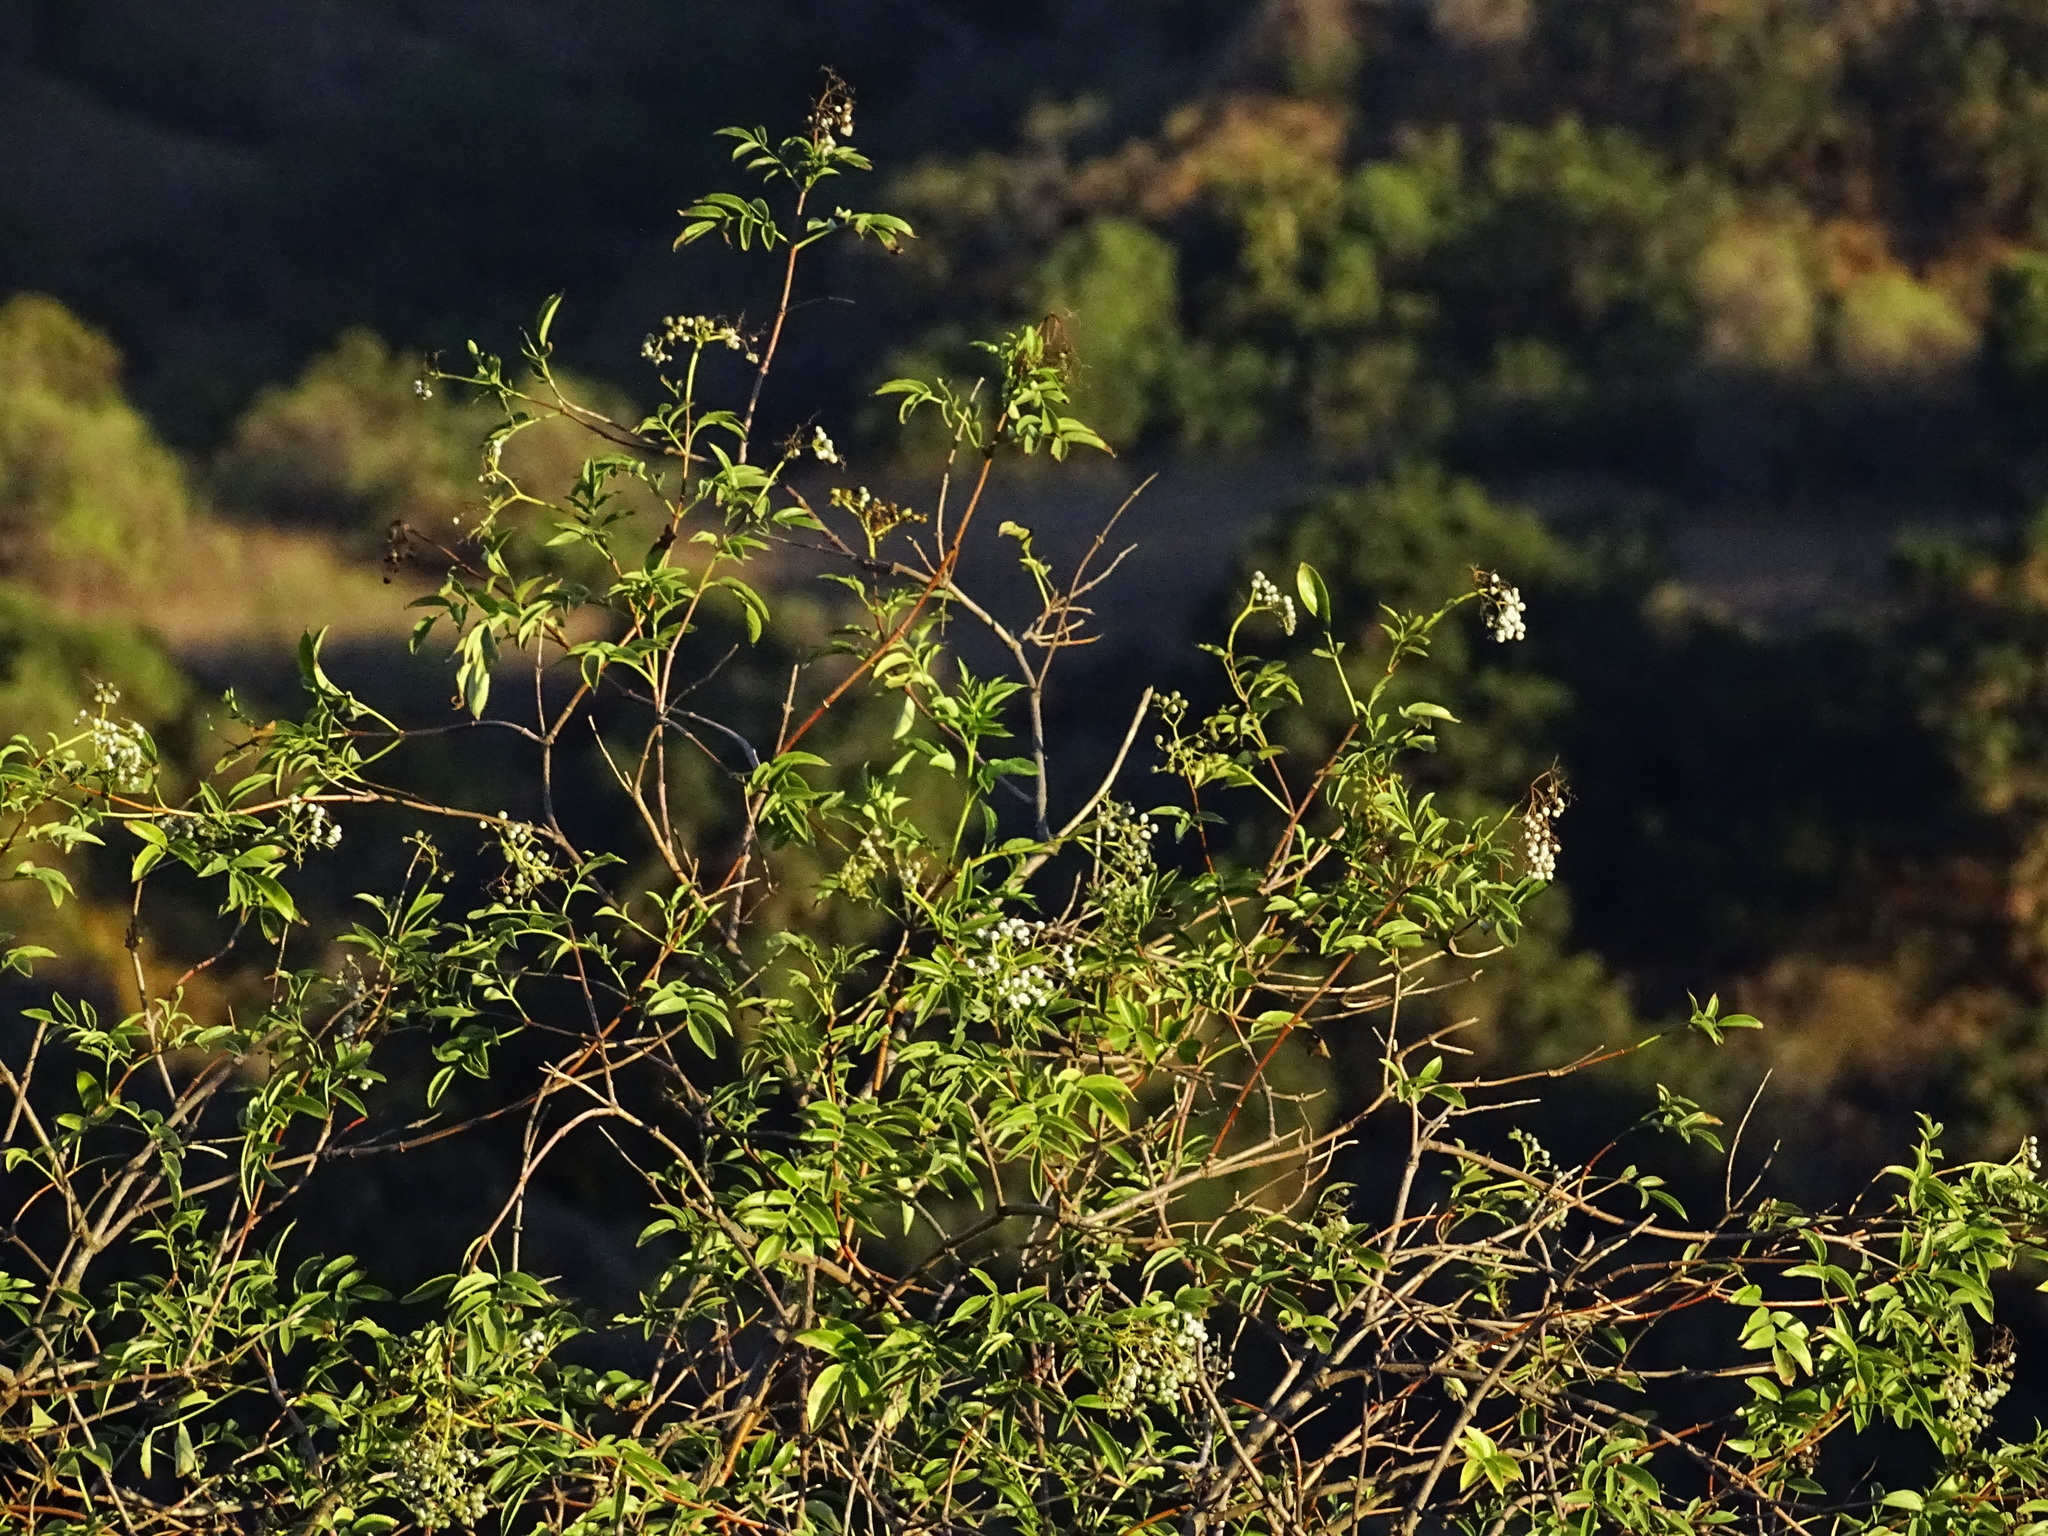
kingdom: Plantae
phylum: Tracheophyta
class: Magnoliopsida
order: Dipsacales
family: Viburnaceae
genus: Sambucus
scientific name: Sambucus cerulea
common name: Blue elder
